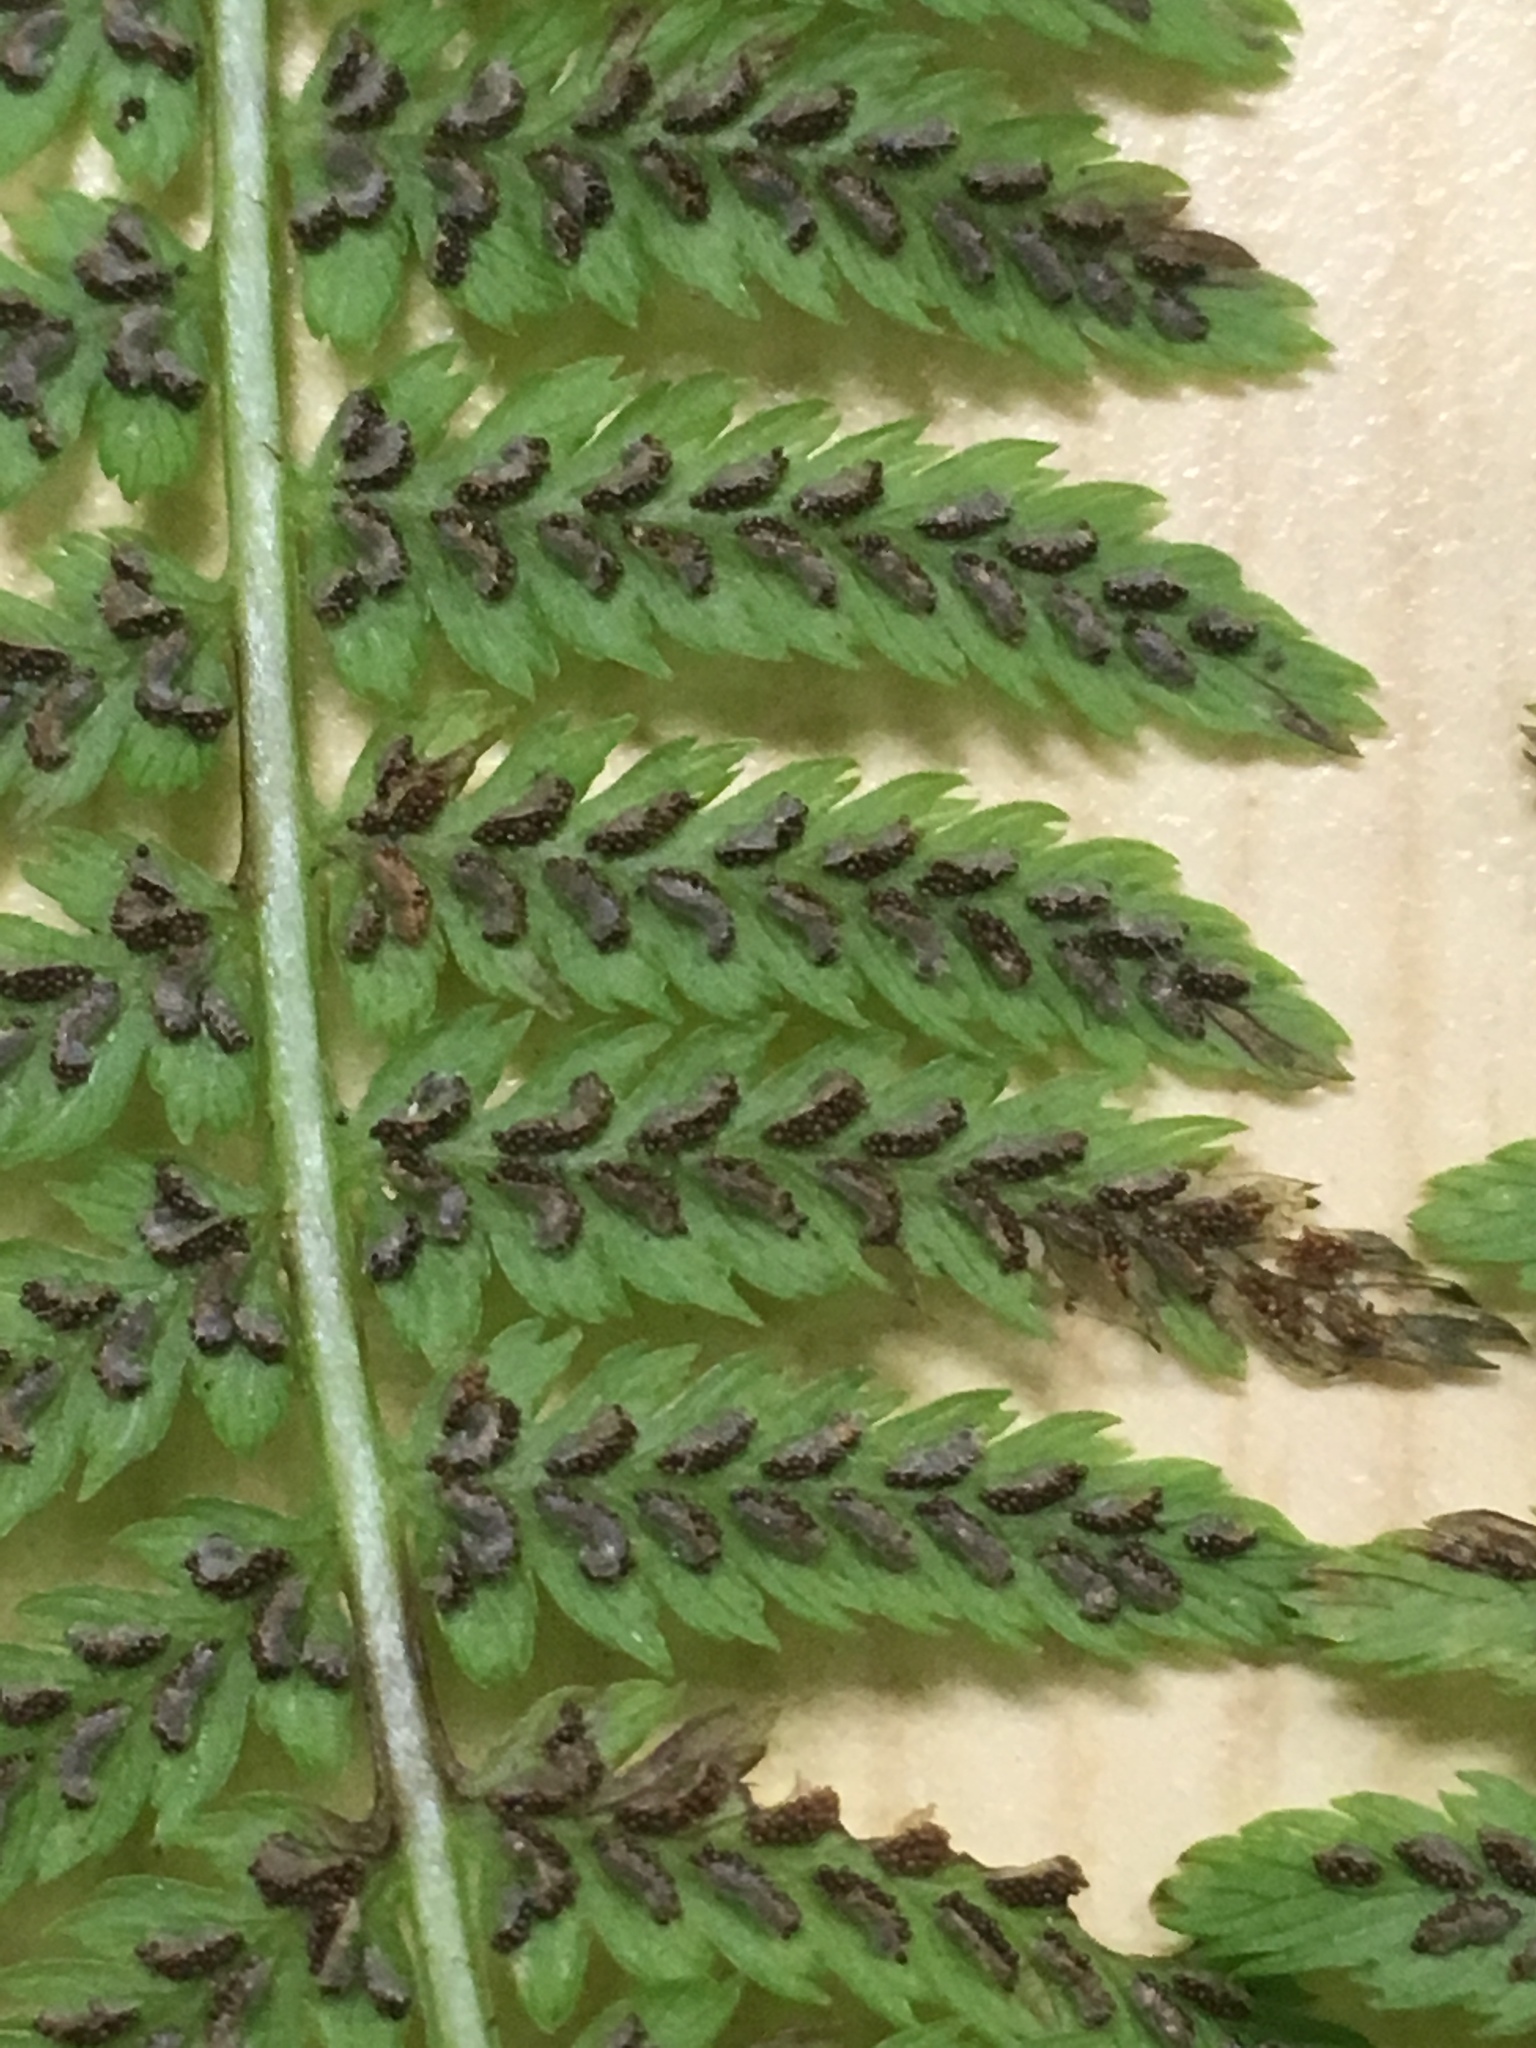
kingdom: Plantae
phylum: Tracheophyta
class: Polypodiopsida
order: Polypodiales
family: Athyriaceae
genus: Athyrium
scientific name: Athyrium angustum
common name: Northern lady fern
